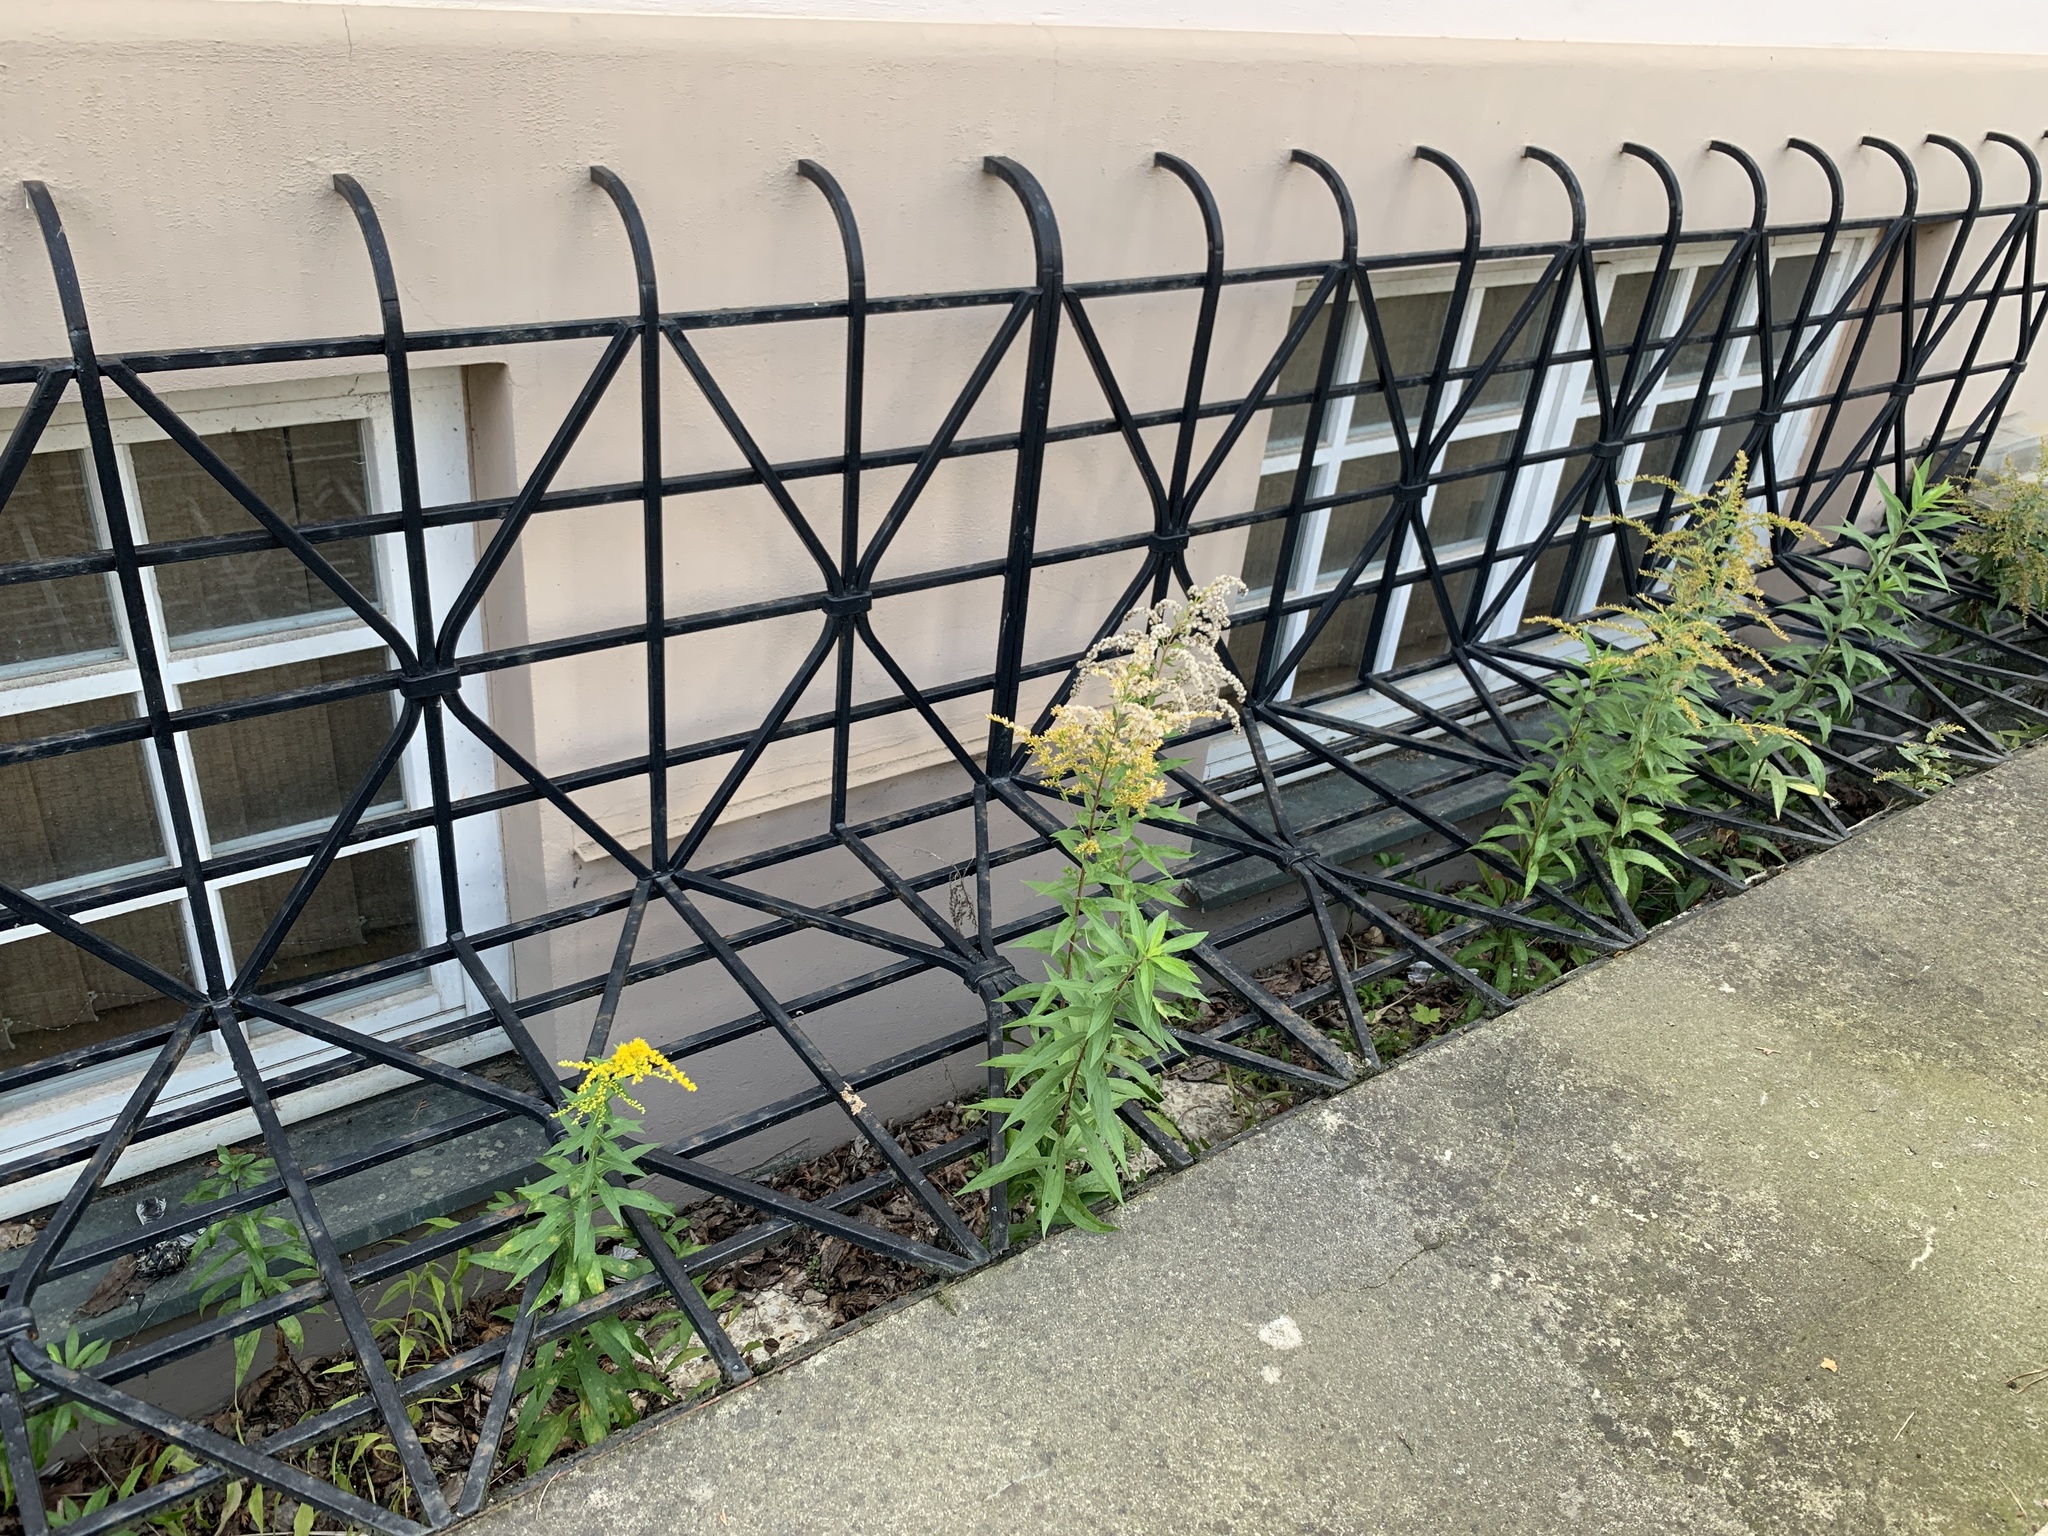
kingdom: Plantae
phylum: Tracheophyta
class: Magnoliopsida
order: Asterales
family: Asteraceae
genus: Solidago
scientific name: Solidago canadensis
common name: Canada goldenrod
